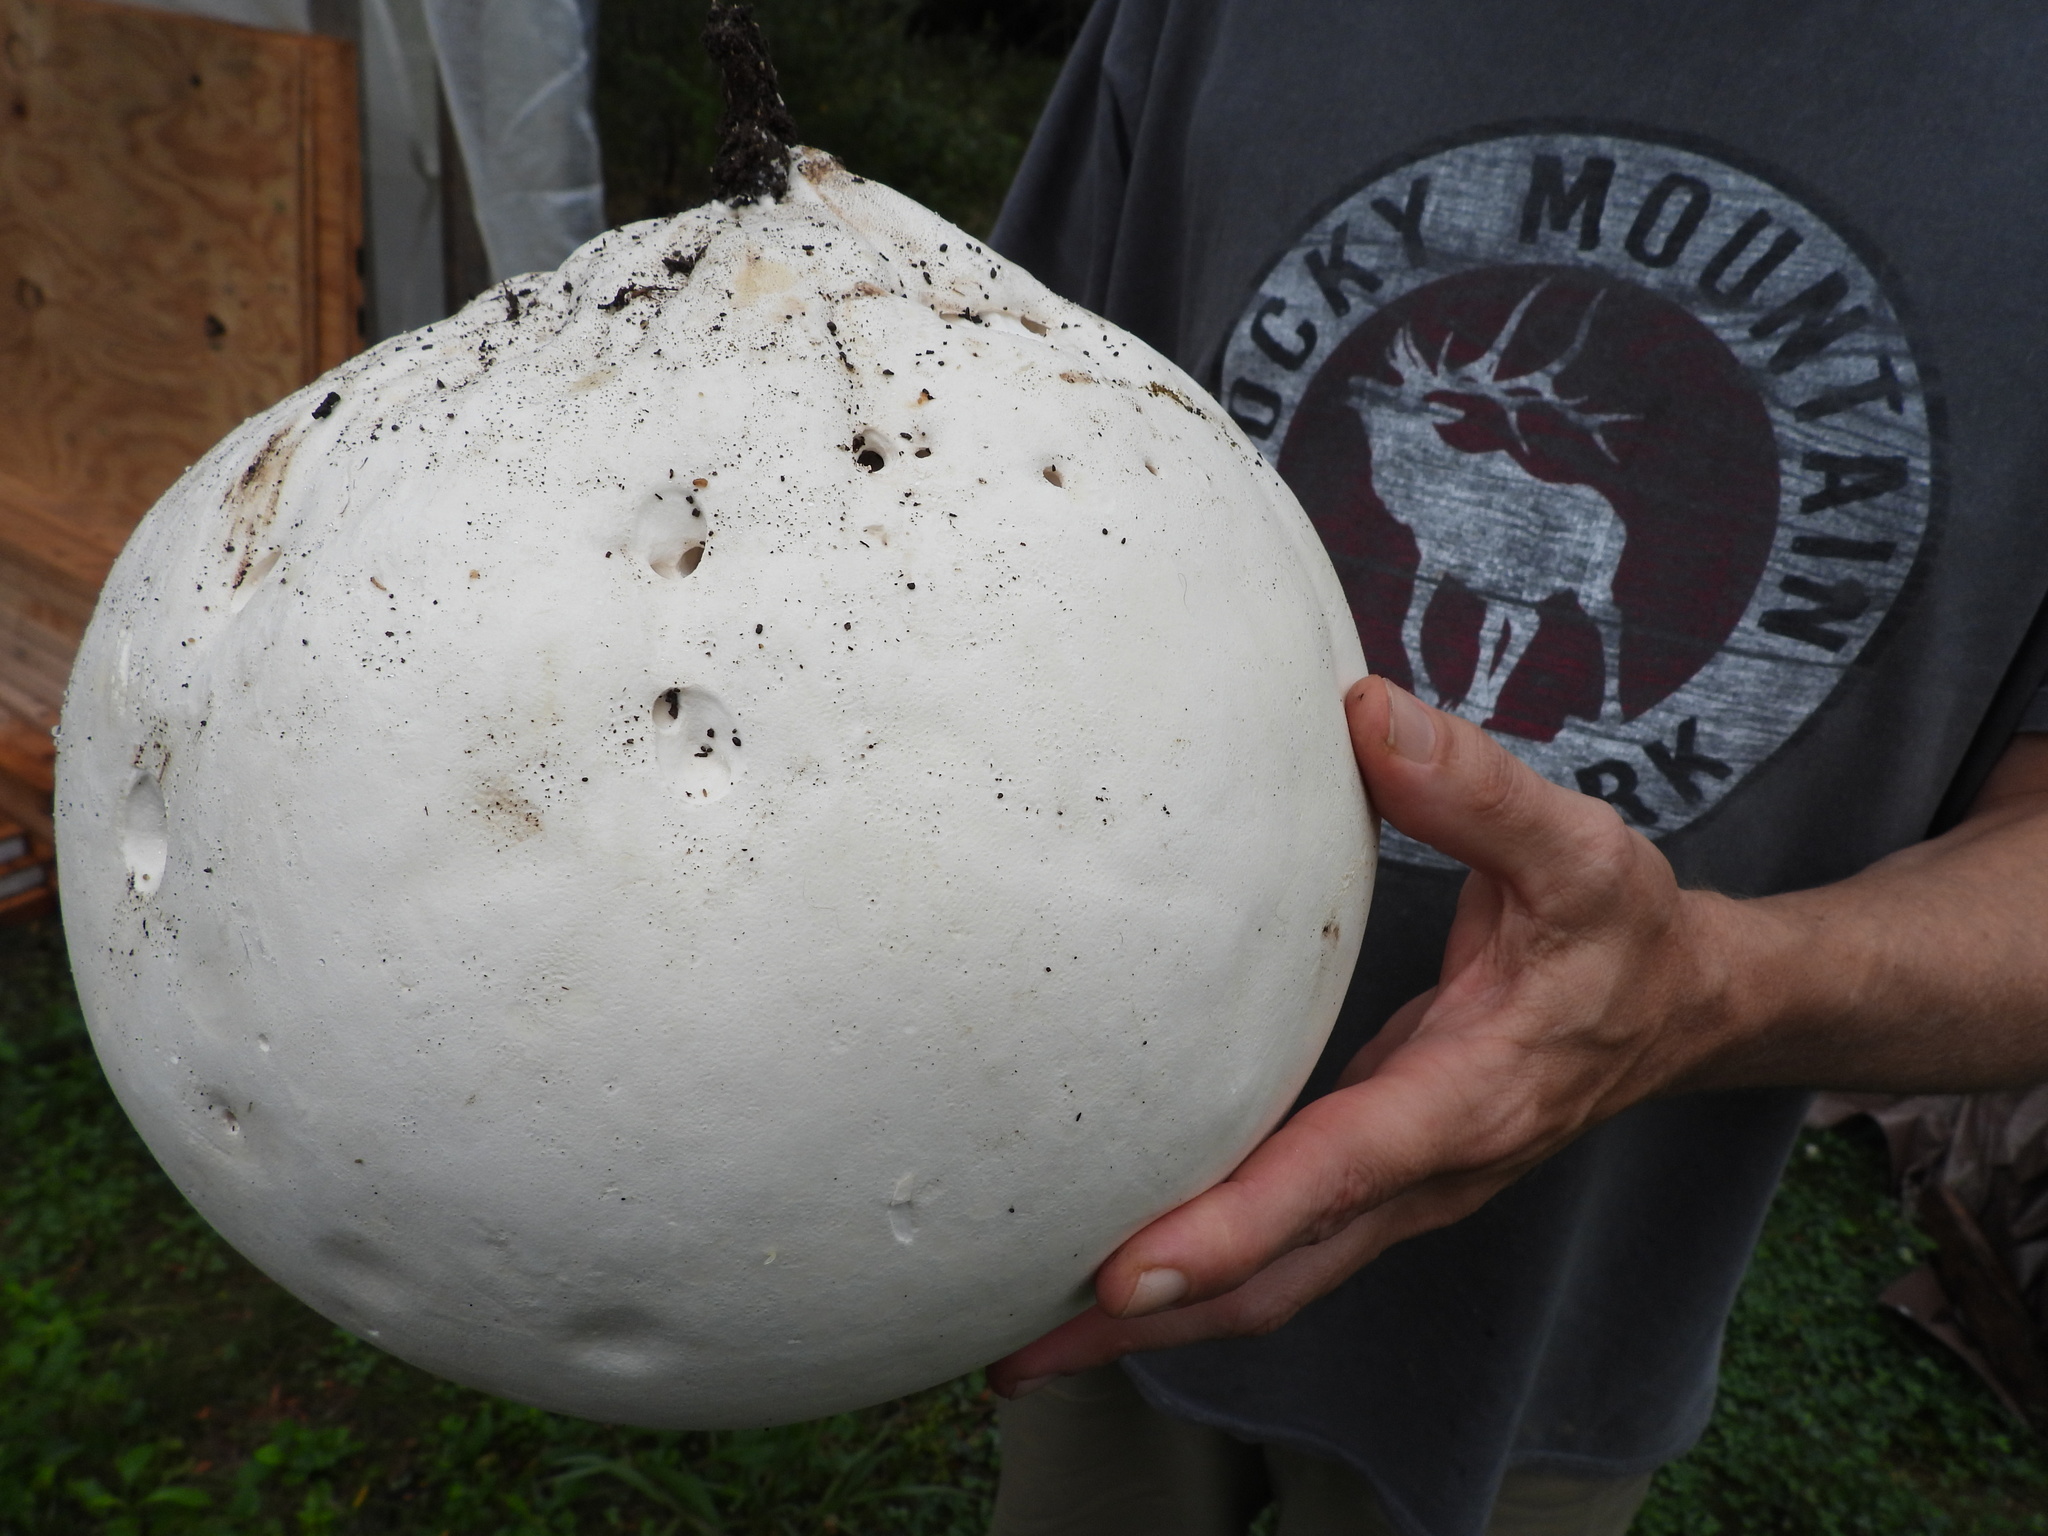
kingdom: Fungi
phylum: Basidiomycota
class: Agaricomycetes
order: Agaricales
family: Lycoperdaceae
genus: Calvatia
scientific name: Calvatia gigantea
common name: Giant puffball
